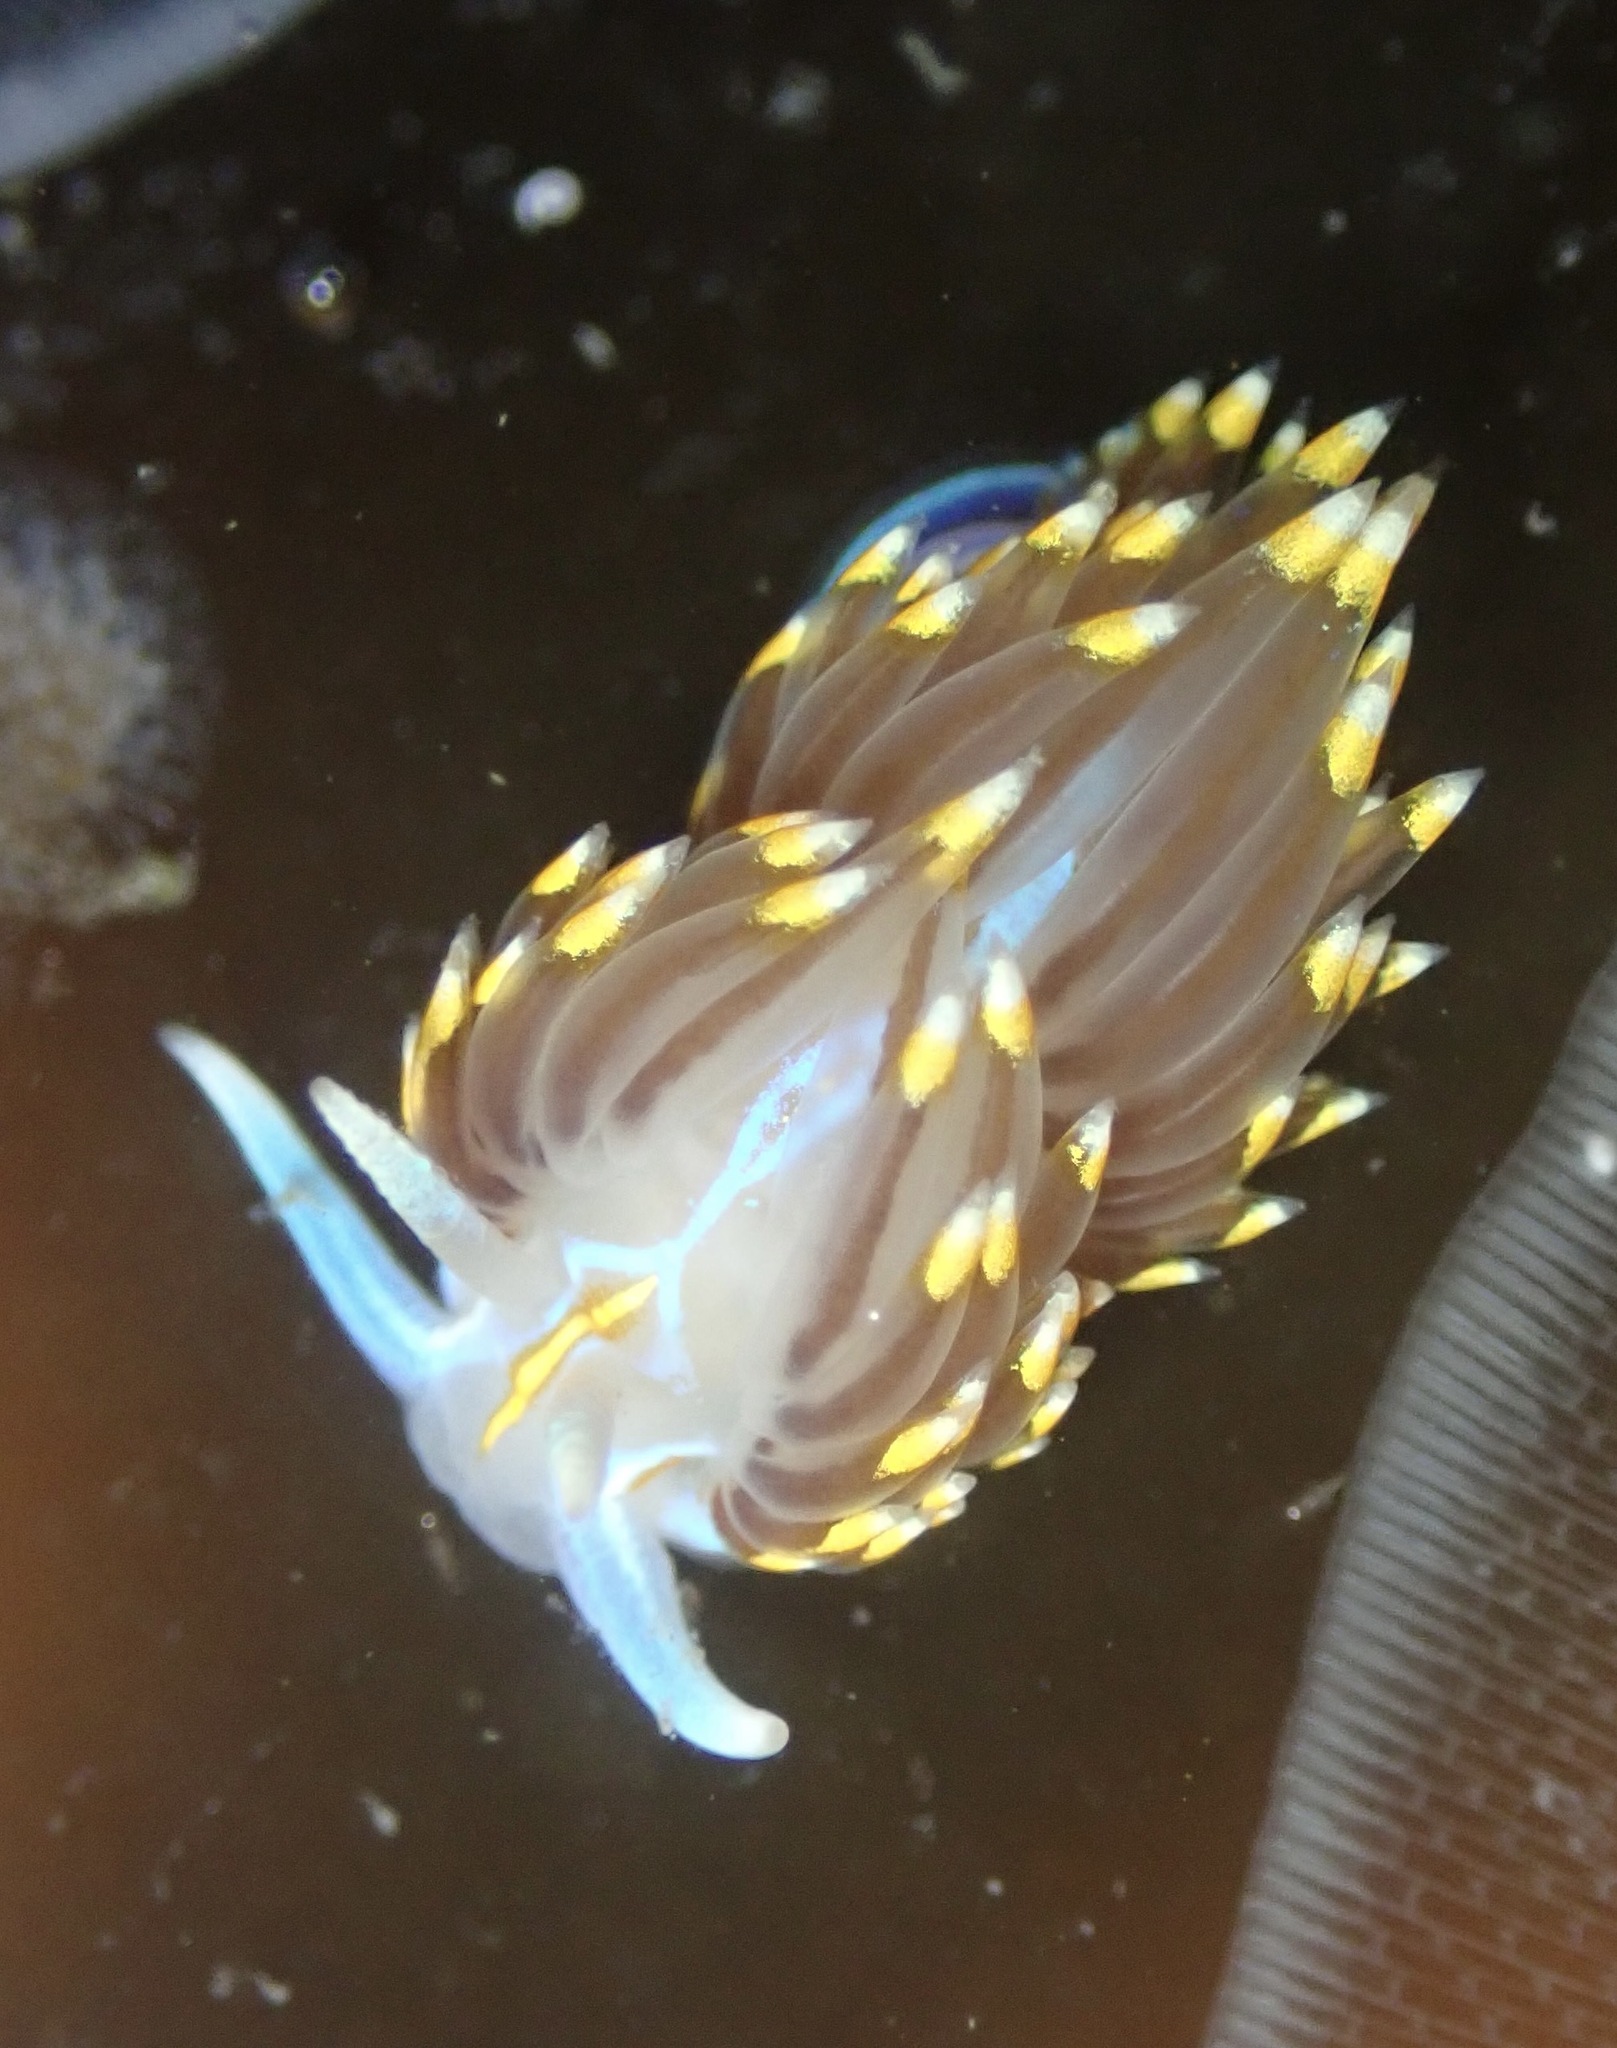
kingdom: Animalia
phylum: Mollusca
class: Gastropoda
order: Nudibranchia
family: Myrrhinidae
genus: Hermissenda
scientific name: Hermissenda opalescens
